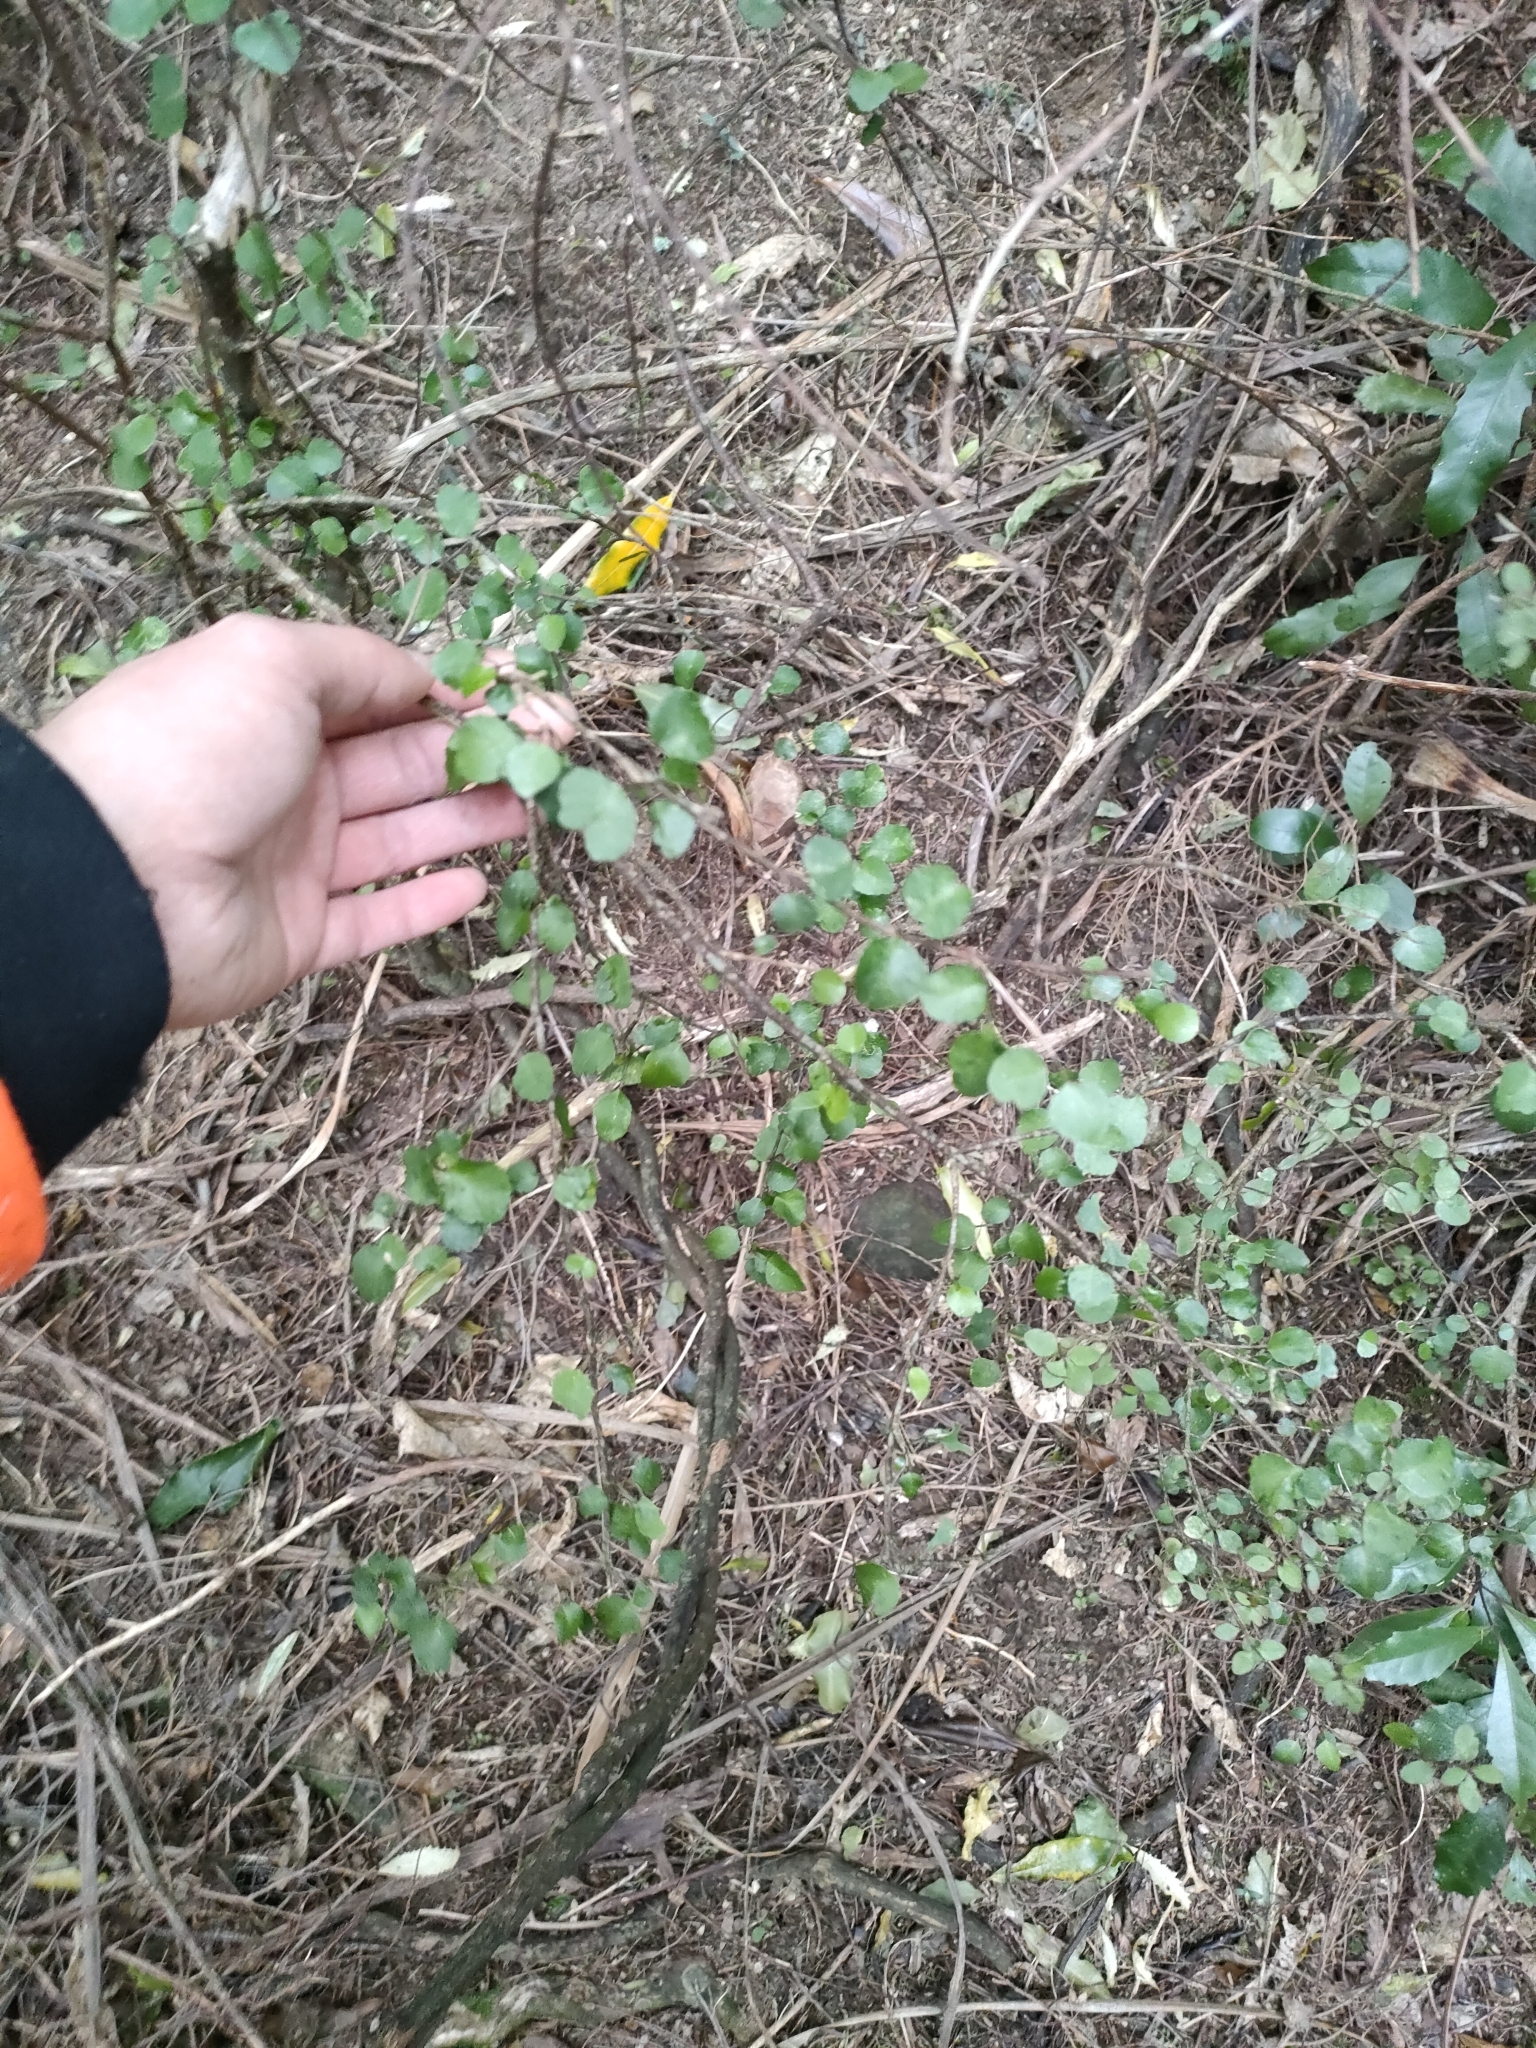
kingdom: Plantae
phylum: Tracheophyta
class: Magnoliopsida
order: Sapindales
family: Rutaceae
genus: Melicope
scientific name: Melicope simplex
